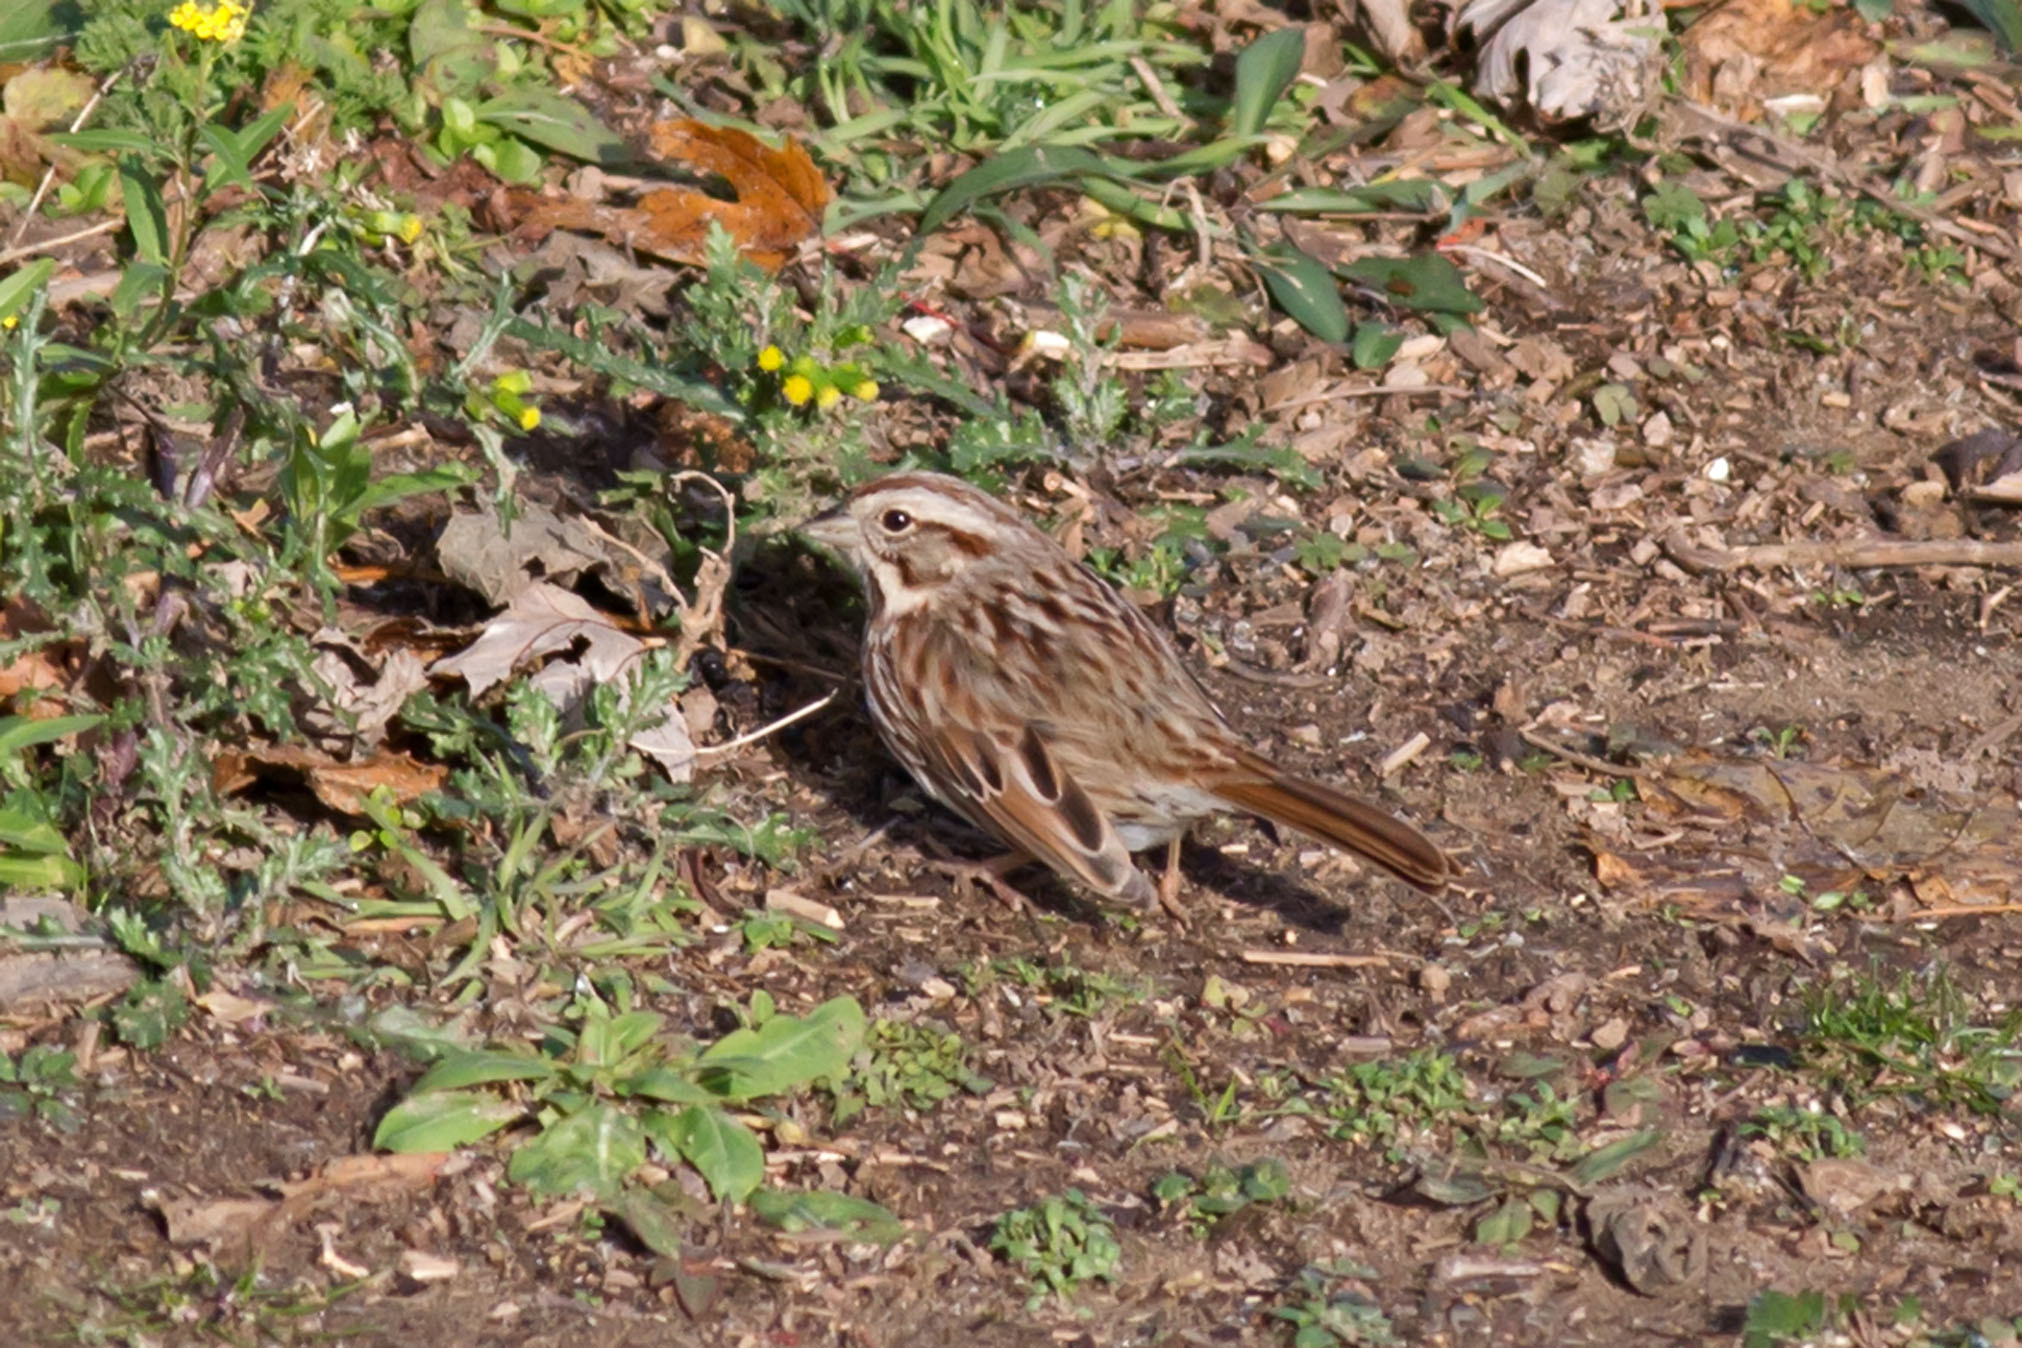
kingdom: Animalia
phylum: Chordata
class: Aves
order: Passeriformes
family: Passerellidae
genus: Melospiza
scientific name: Melospiza melodia
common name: Song sparrow
